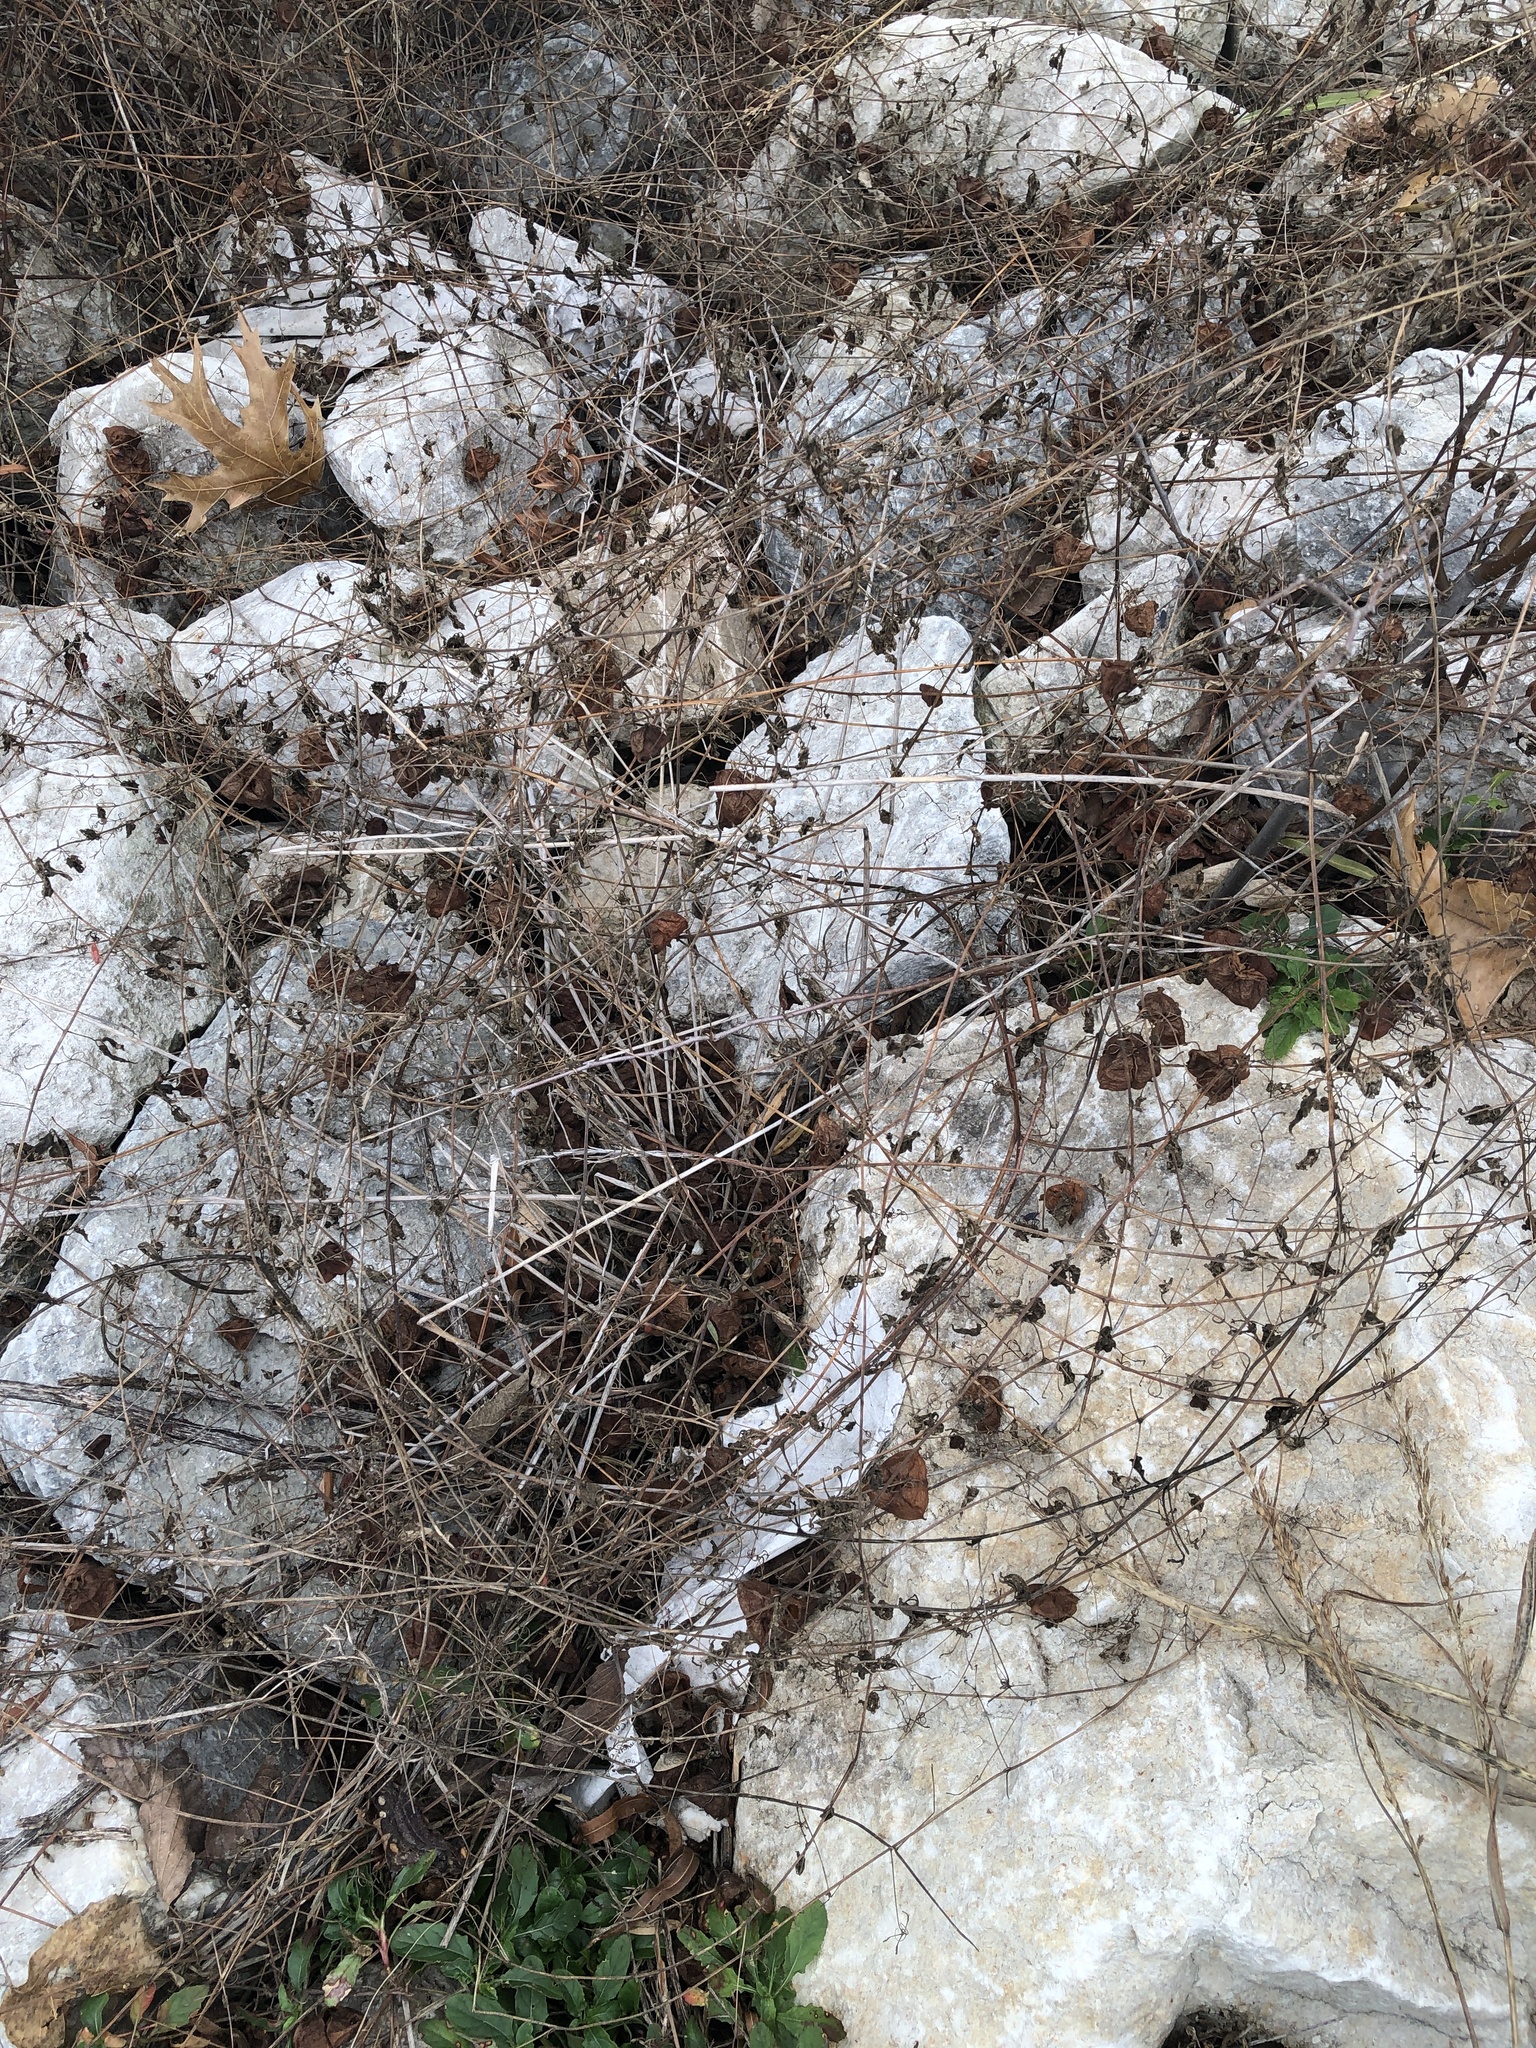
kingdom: Plantae
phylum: Tracheophyta
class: Magnoliopsida
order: Sapindales
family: Sapindaceae
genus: Cardiospermum
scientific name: Cardiospermum halicacabum
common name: Balloon vine
